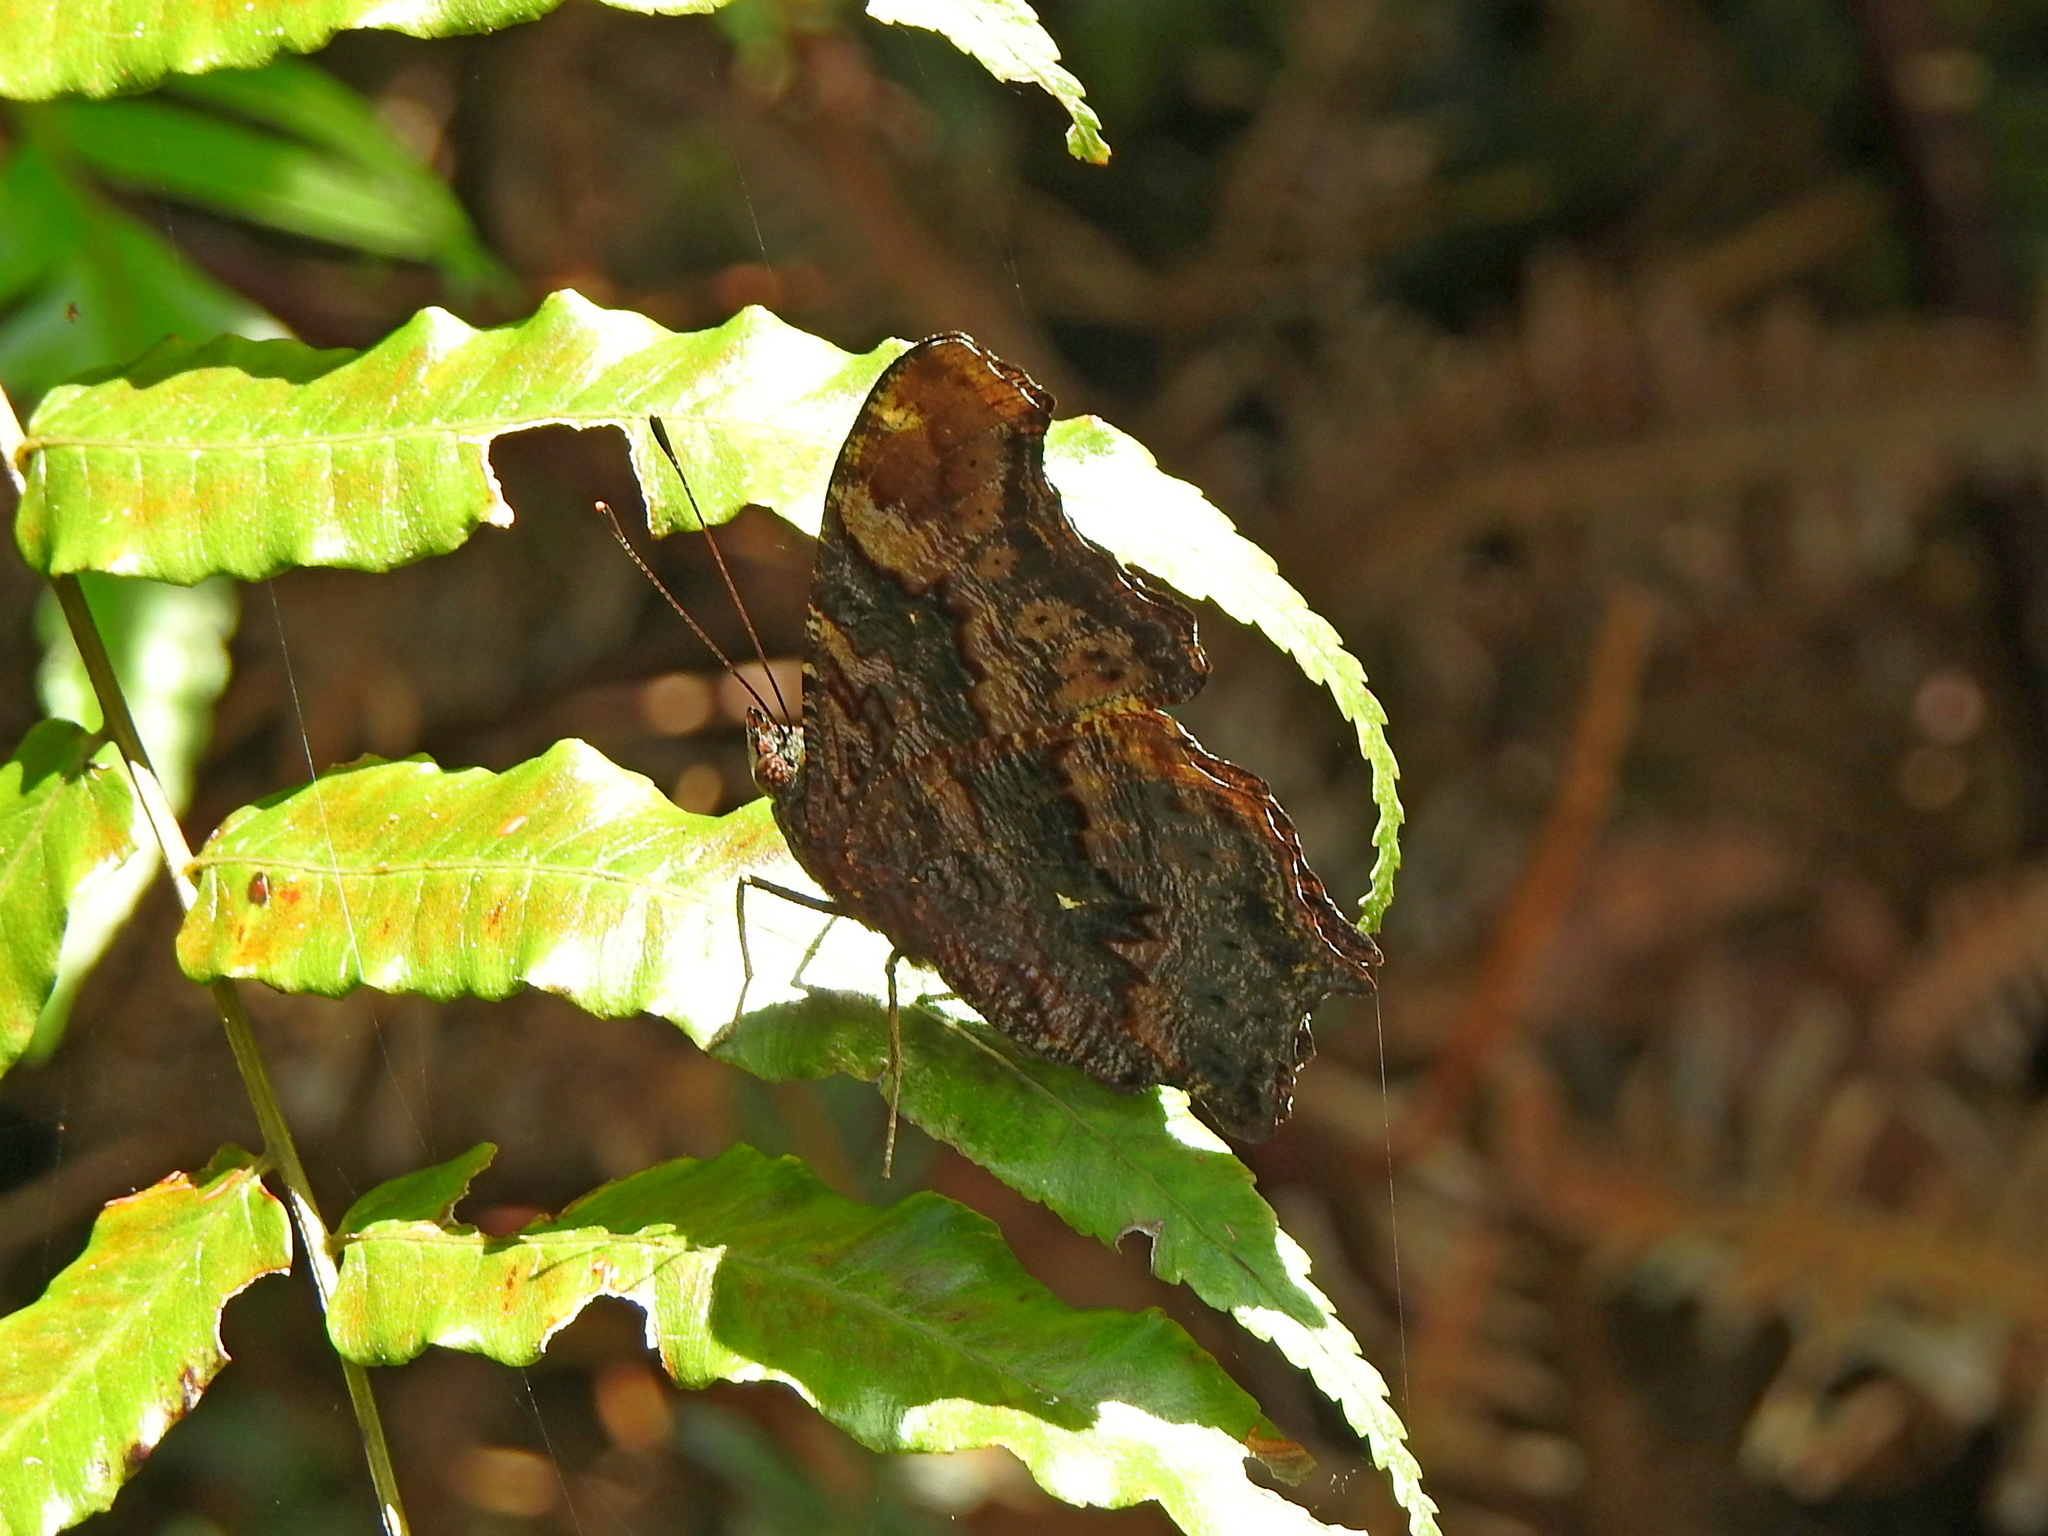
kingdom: Animalia
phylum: Arthropoda
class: Insecta
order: Lepidoptera
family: Nymphalidae
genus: Vanessa
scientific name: Vanessa Kaniska canace
